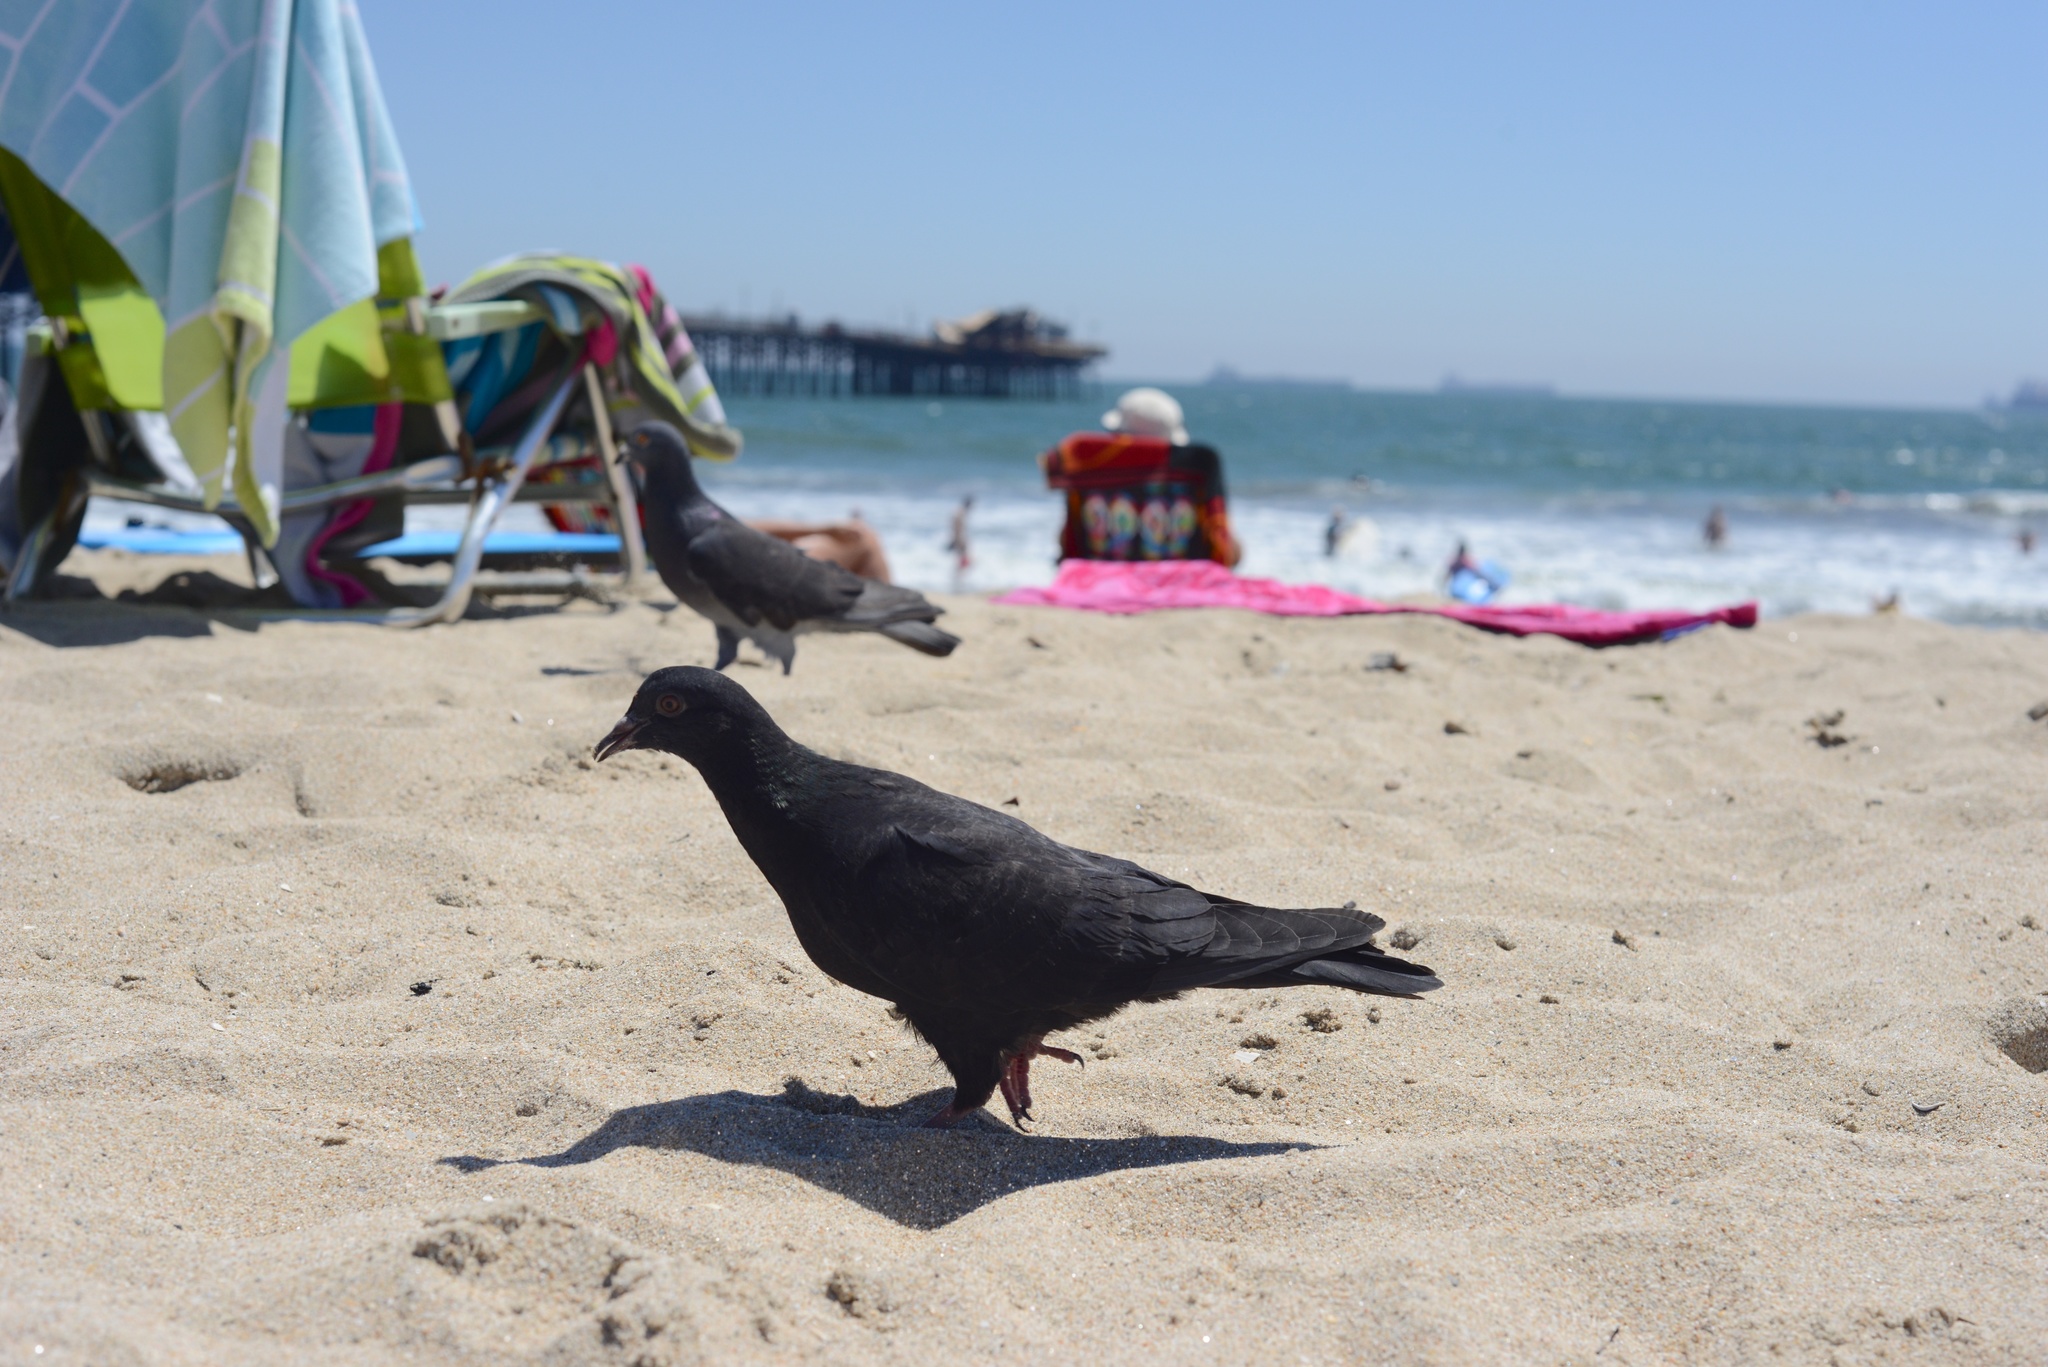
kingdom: Animalia
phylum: Chordata
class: Aves
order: Columbiformes
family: Columbidae
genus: Columba
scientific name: Columba livia
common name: Rock pigeon
